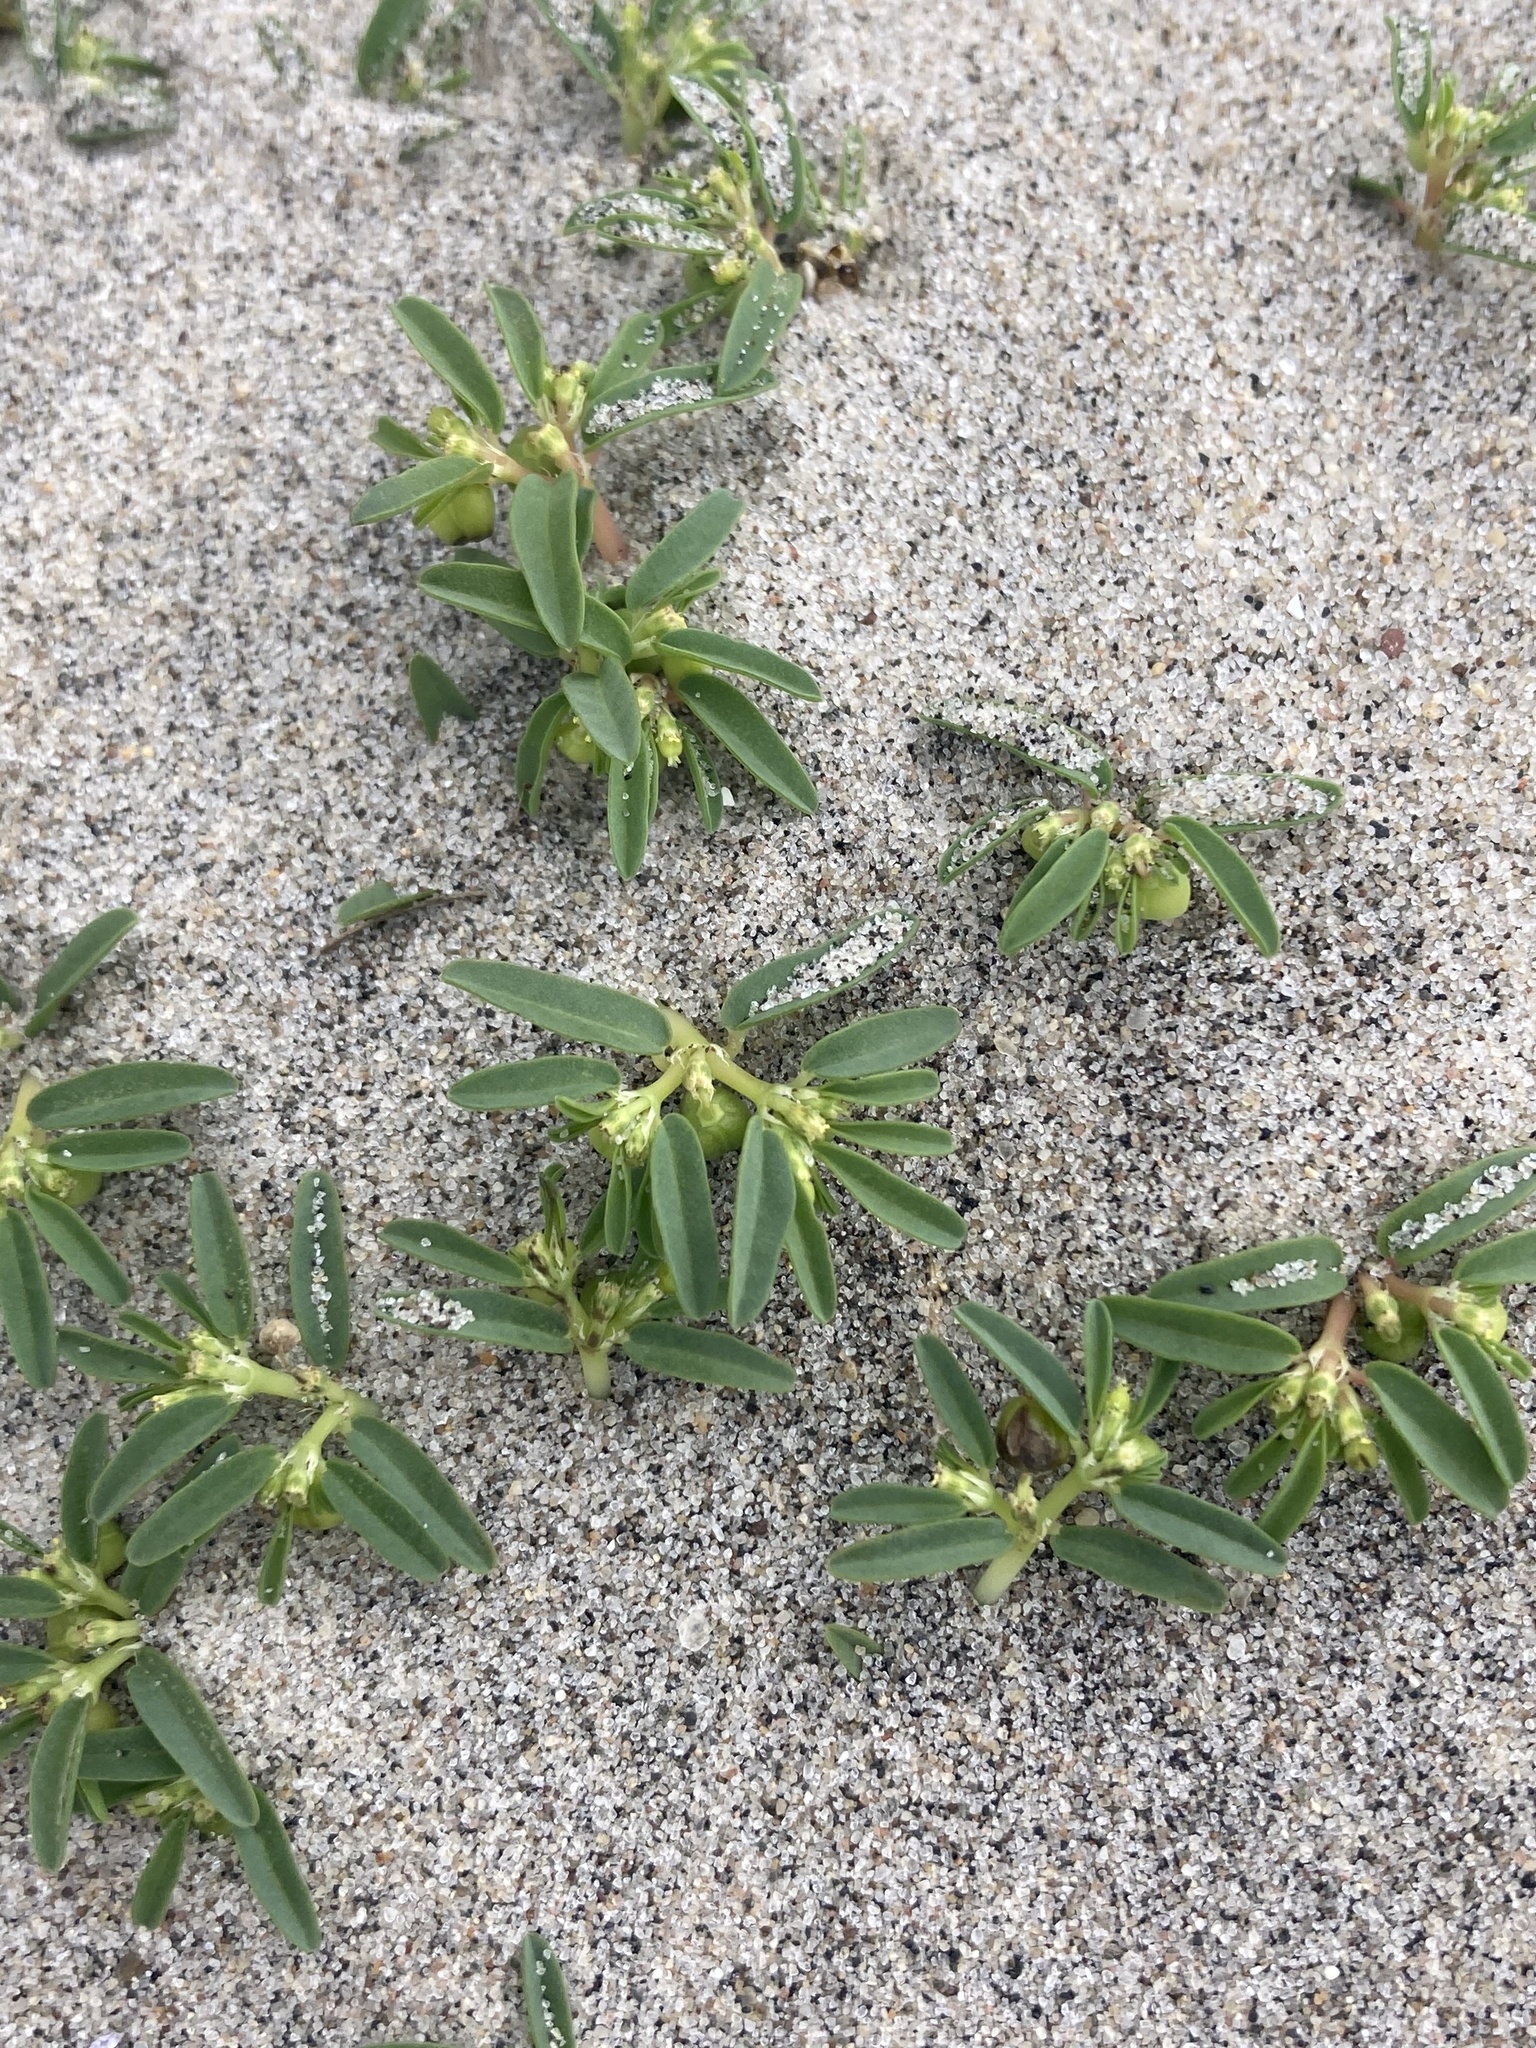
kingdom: Plantae
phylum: Tracheophyta
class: Magnoliopsida
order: Malpighiales
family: Euphorbiaceae
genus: Euphorbia
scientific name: Euphorbia polygonifolia
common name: Knotweed spurge
